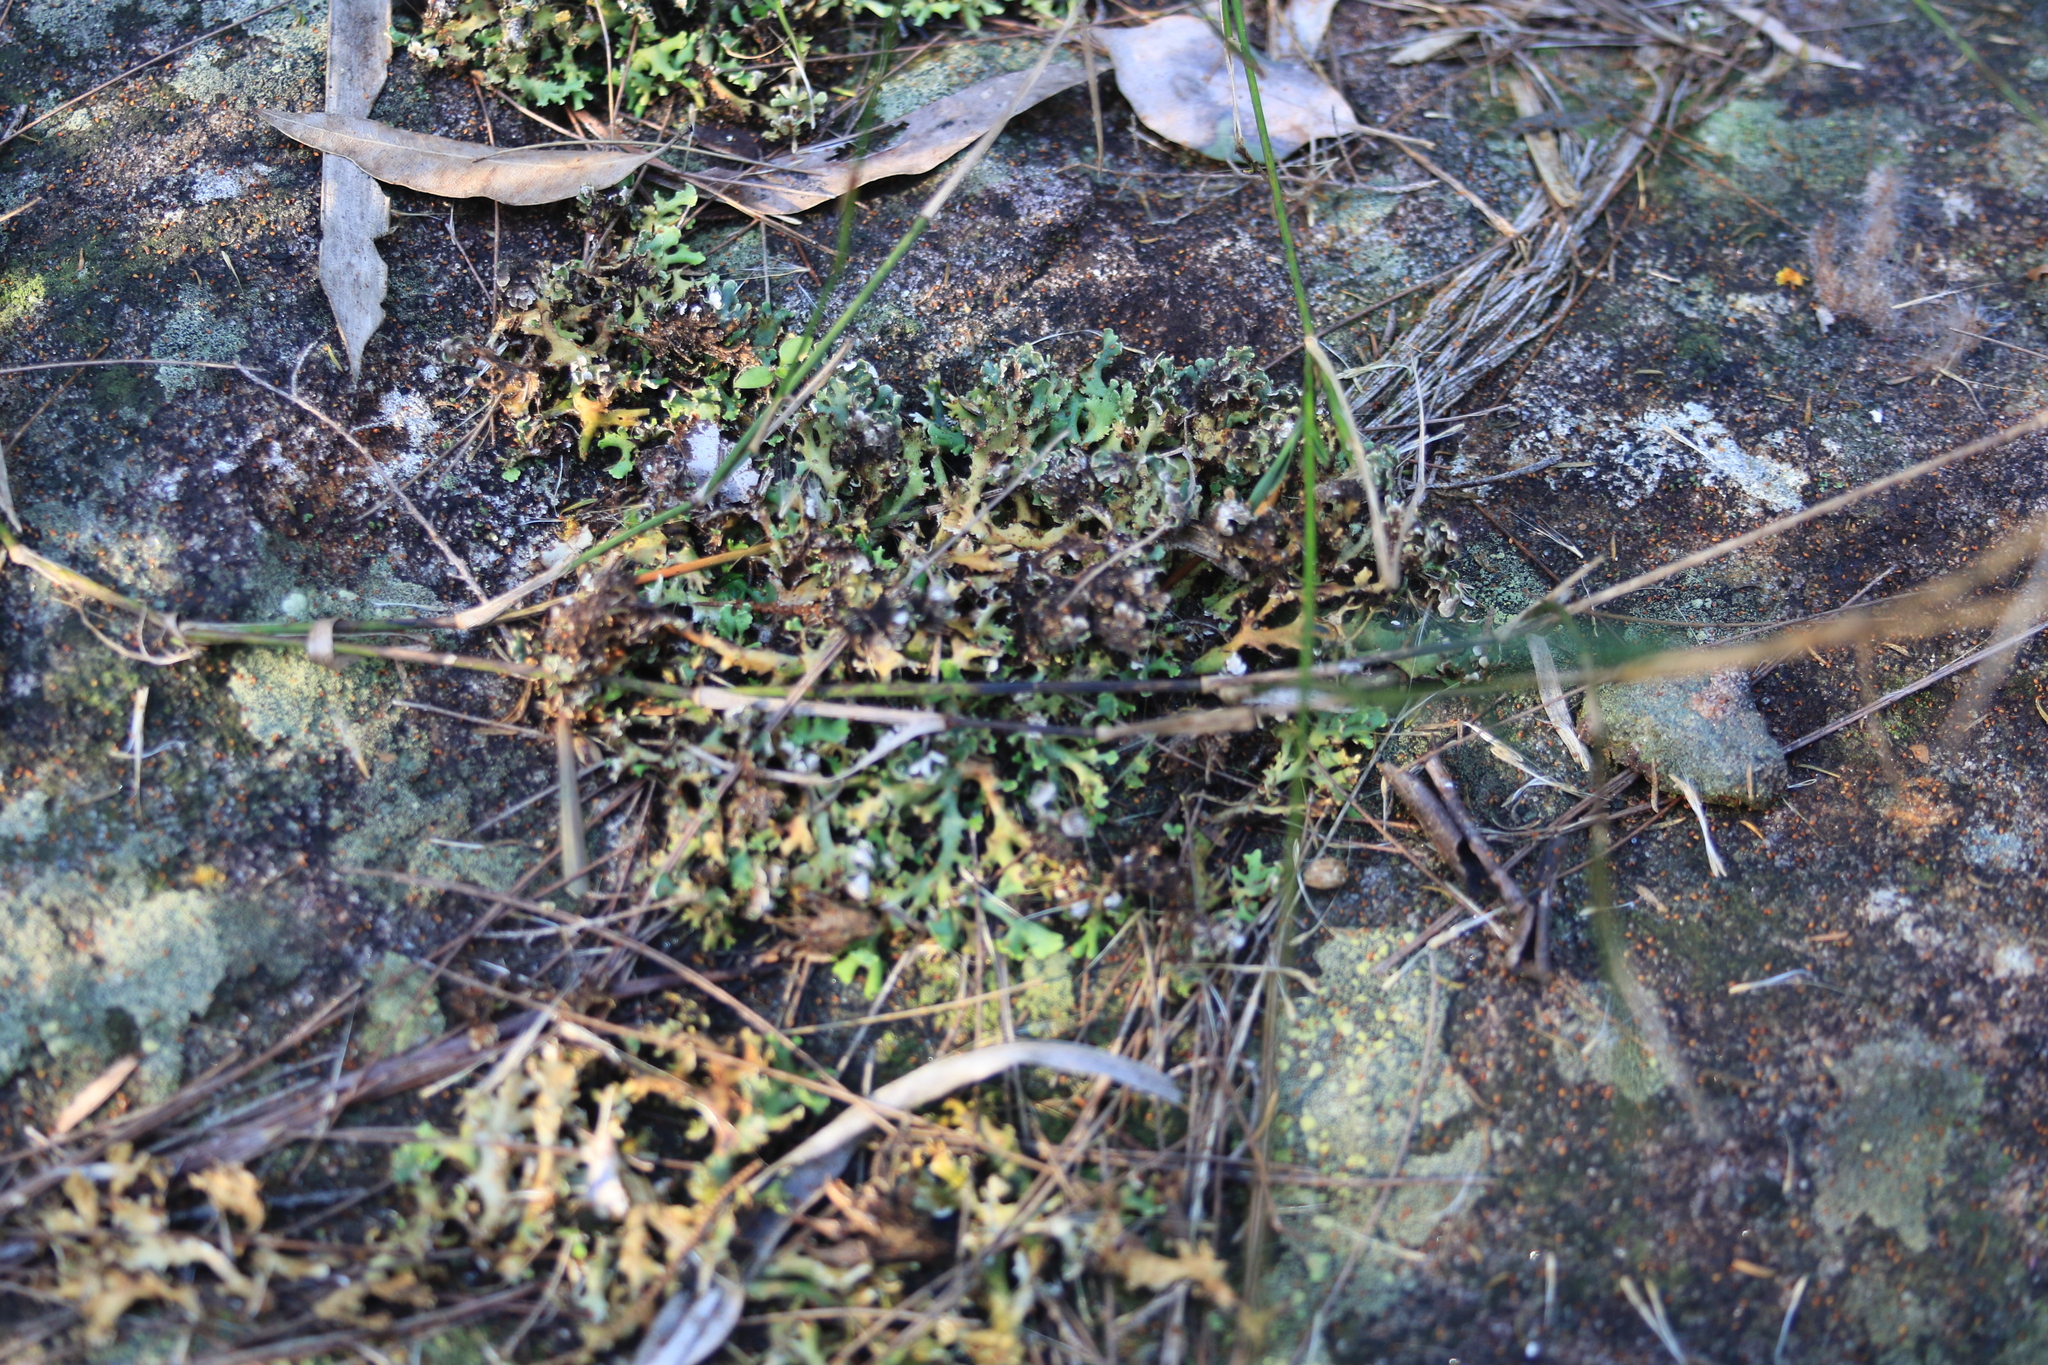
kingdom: Fungi
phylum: Ascomycota
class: Lecanoromycetes
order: Lecanorales
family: Cladoniaceae
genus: Cladia
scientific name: Cladia muelleri
